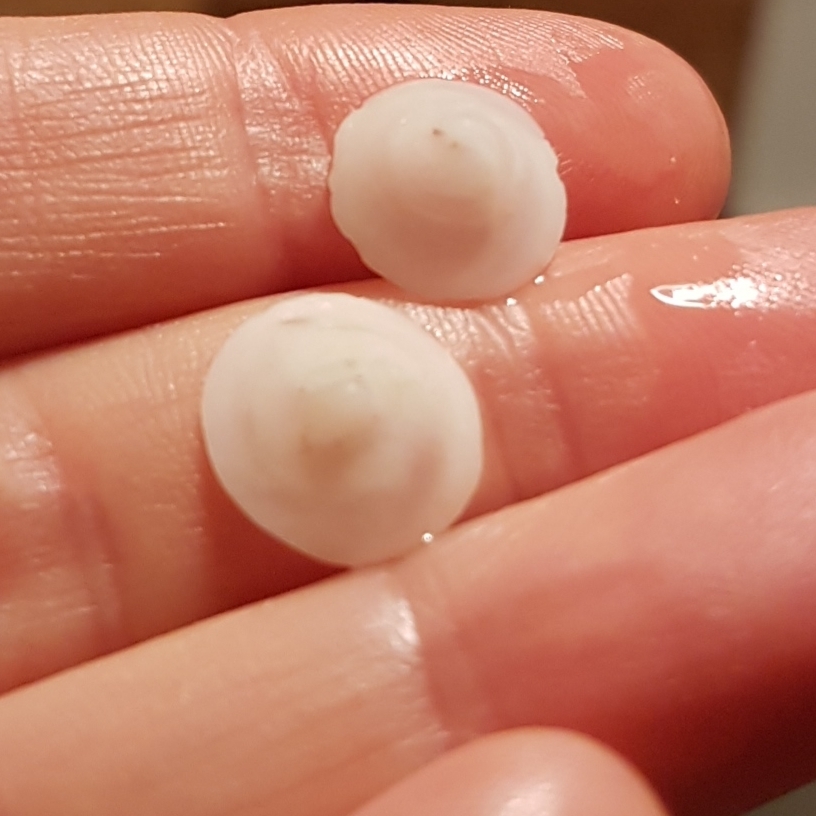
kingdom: Animalia
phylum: Mollusca
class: Gastropoda
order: Littorinimorpha
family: Calyptraeidae
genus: Calyptraea
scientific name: Calyptraea chinensis
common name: Chinaman's hat
